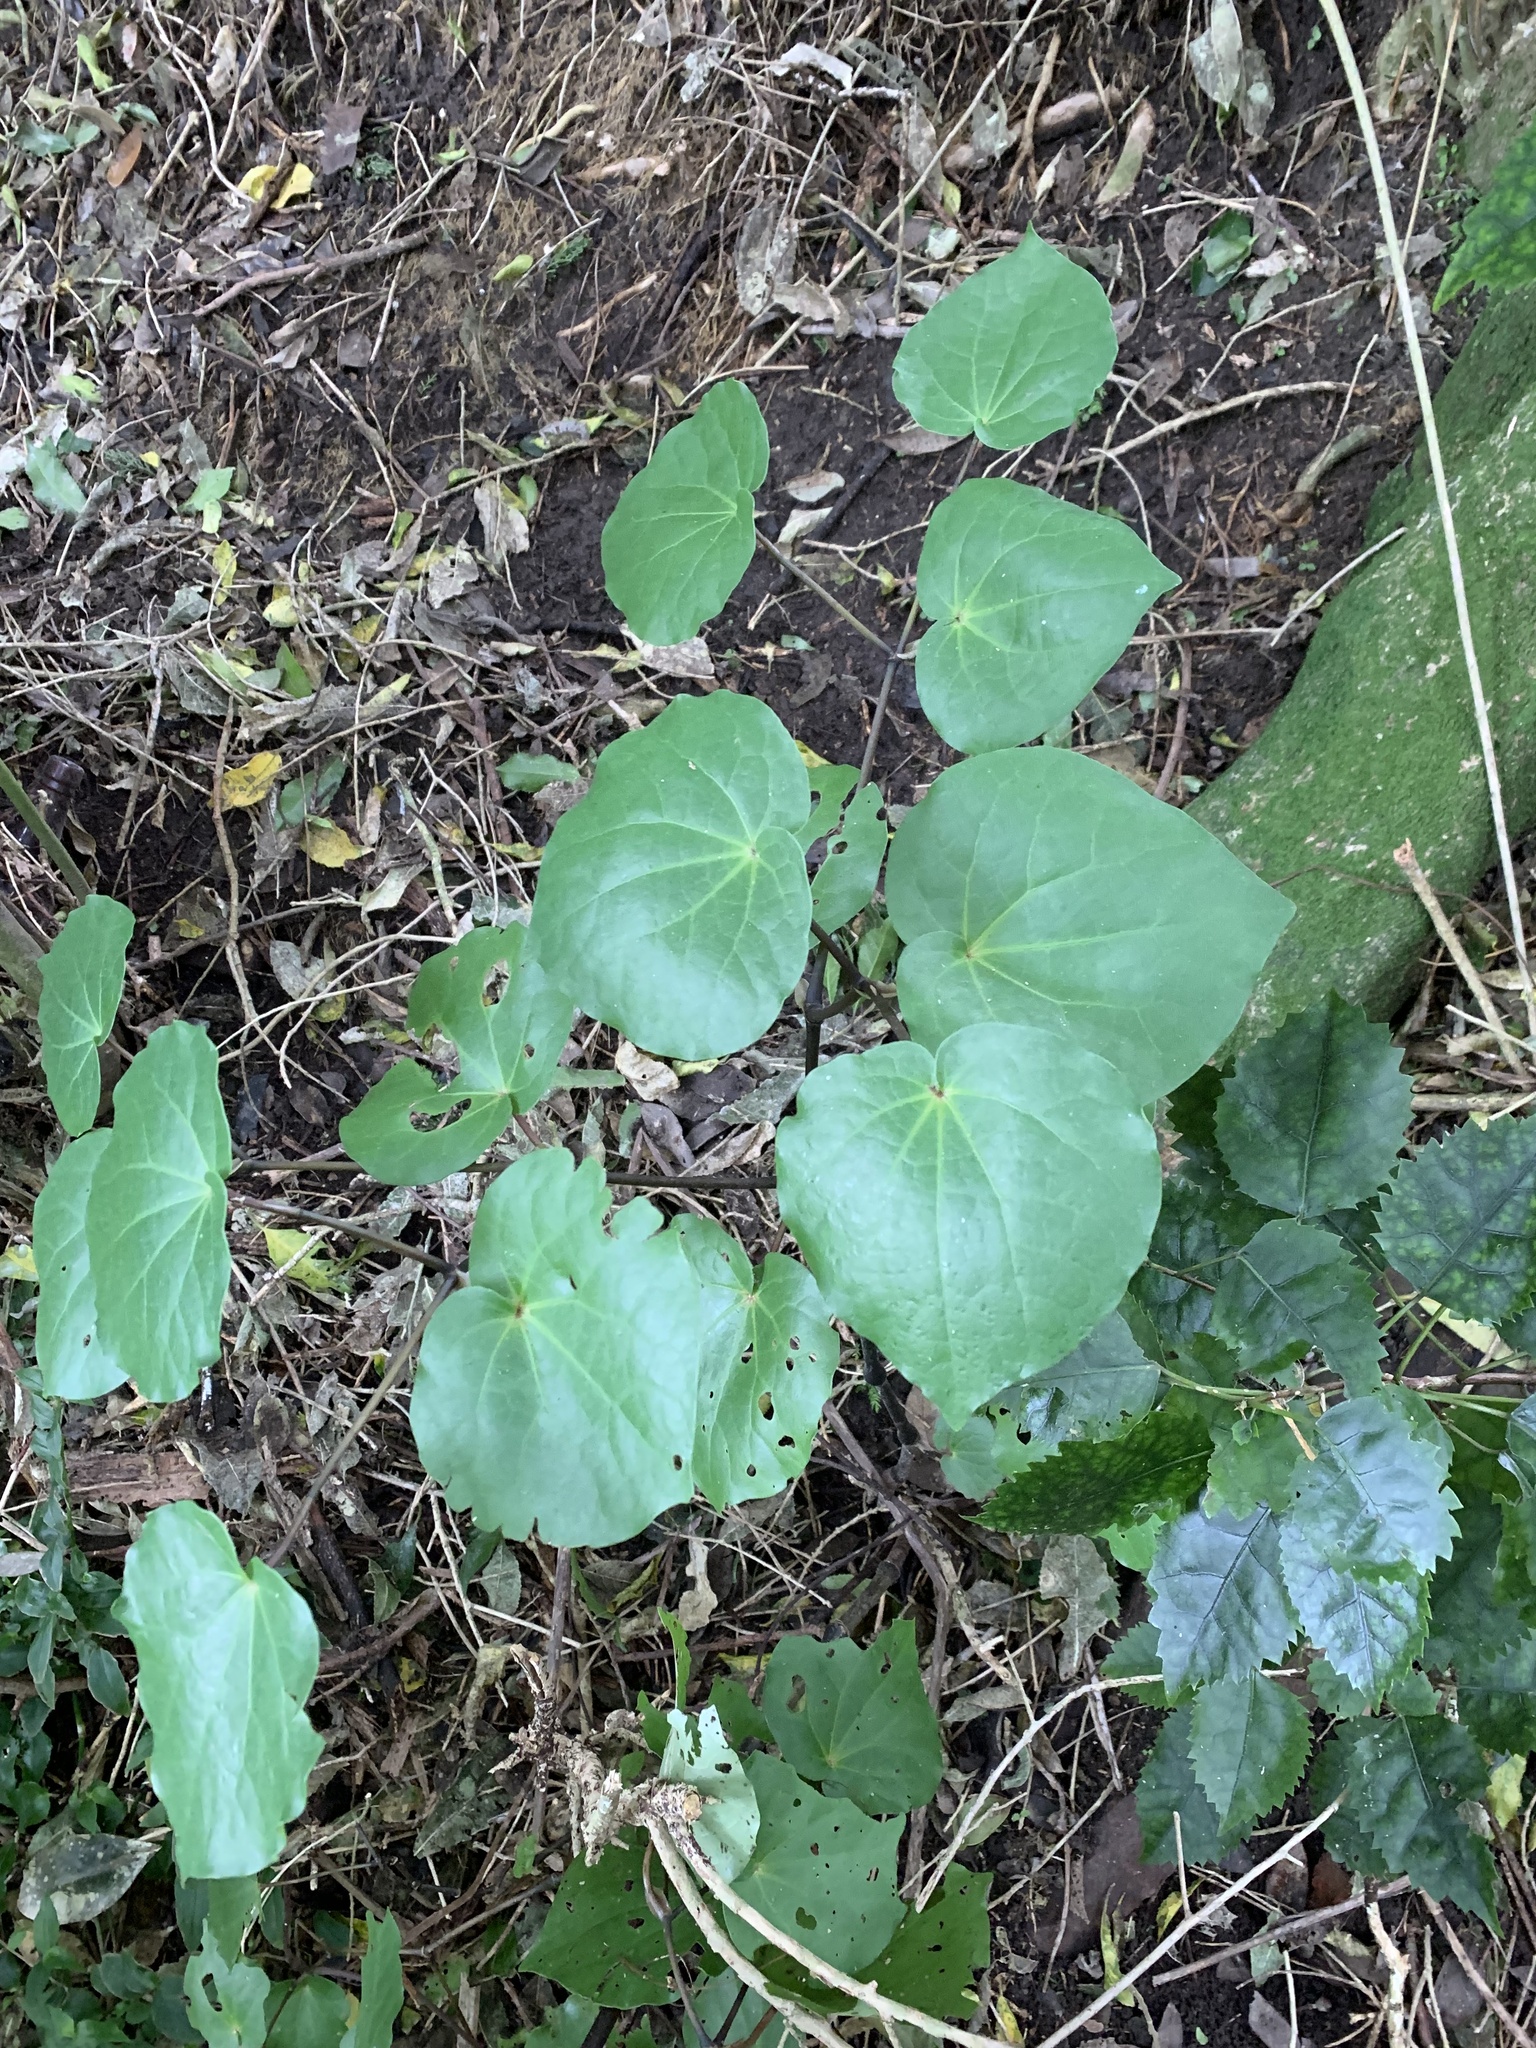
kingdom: Plantae
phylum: Tracheophyta
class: Magnoliopsida
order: Piperales
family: Piperaceae
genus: Macropiper
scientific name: Macropiper excelsum
